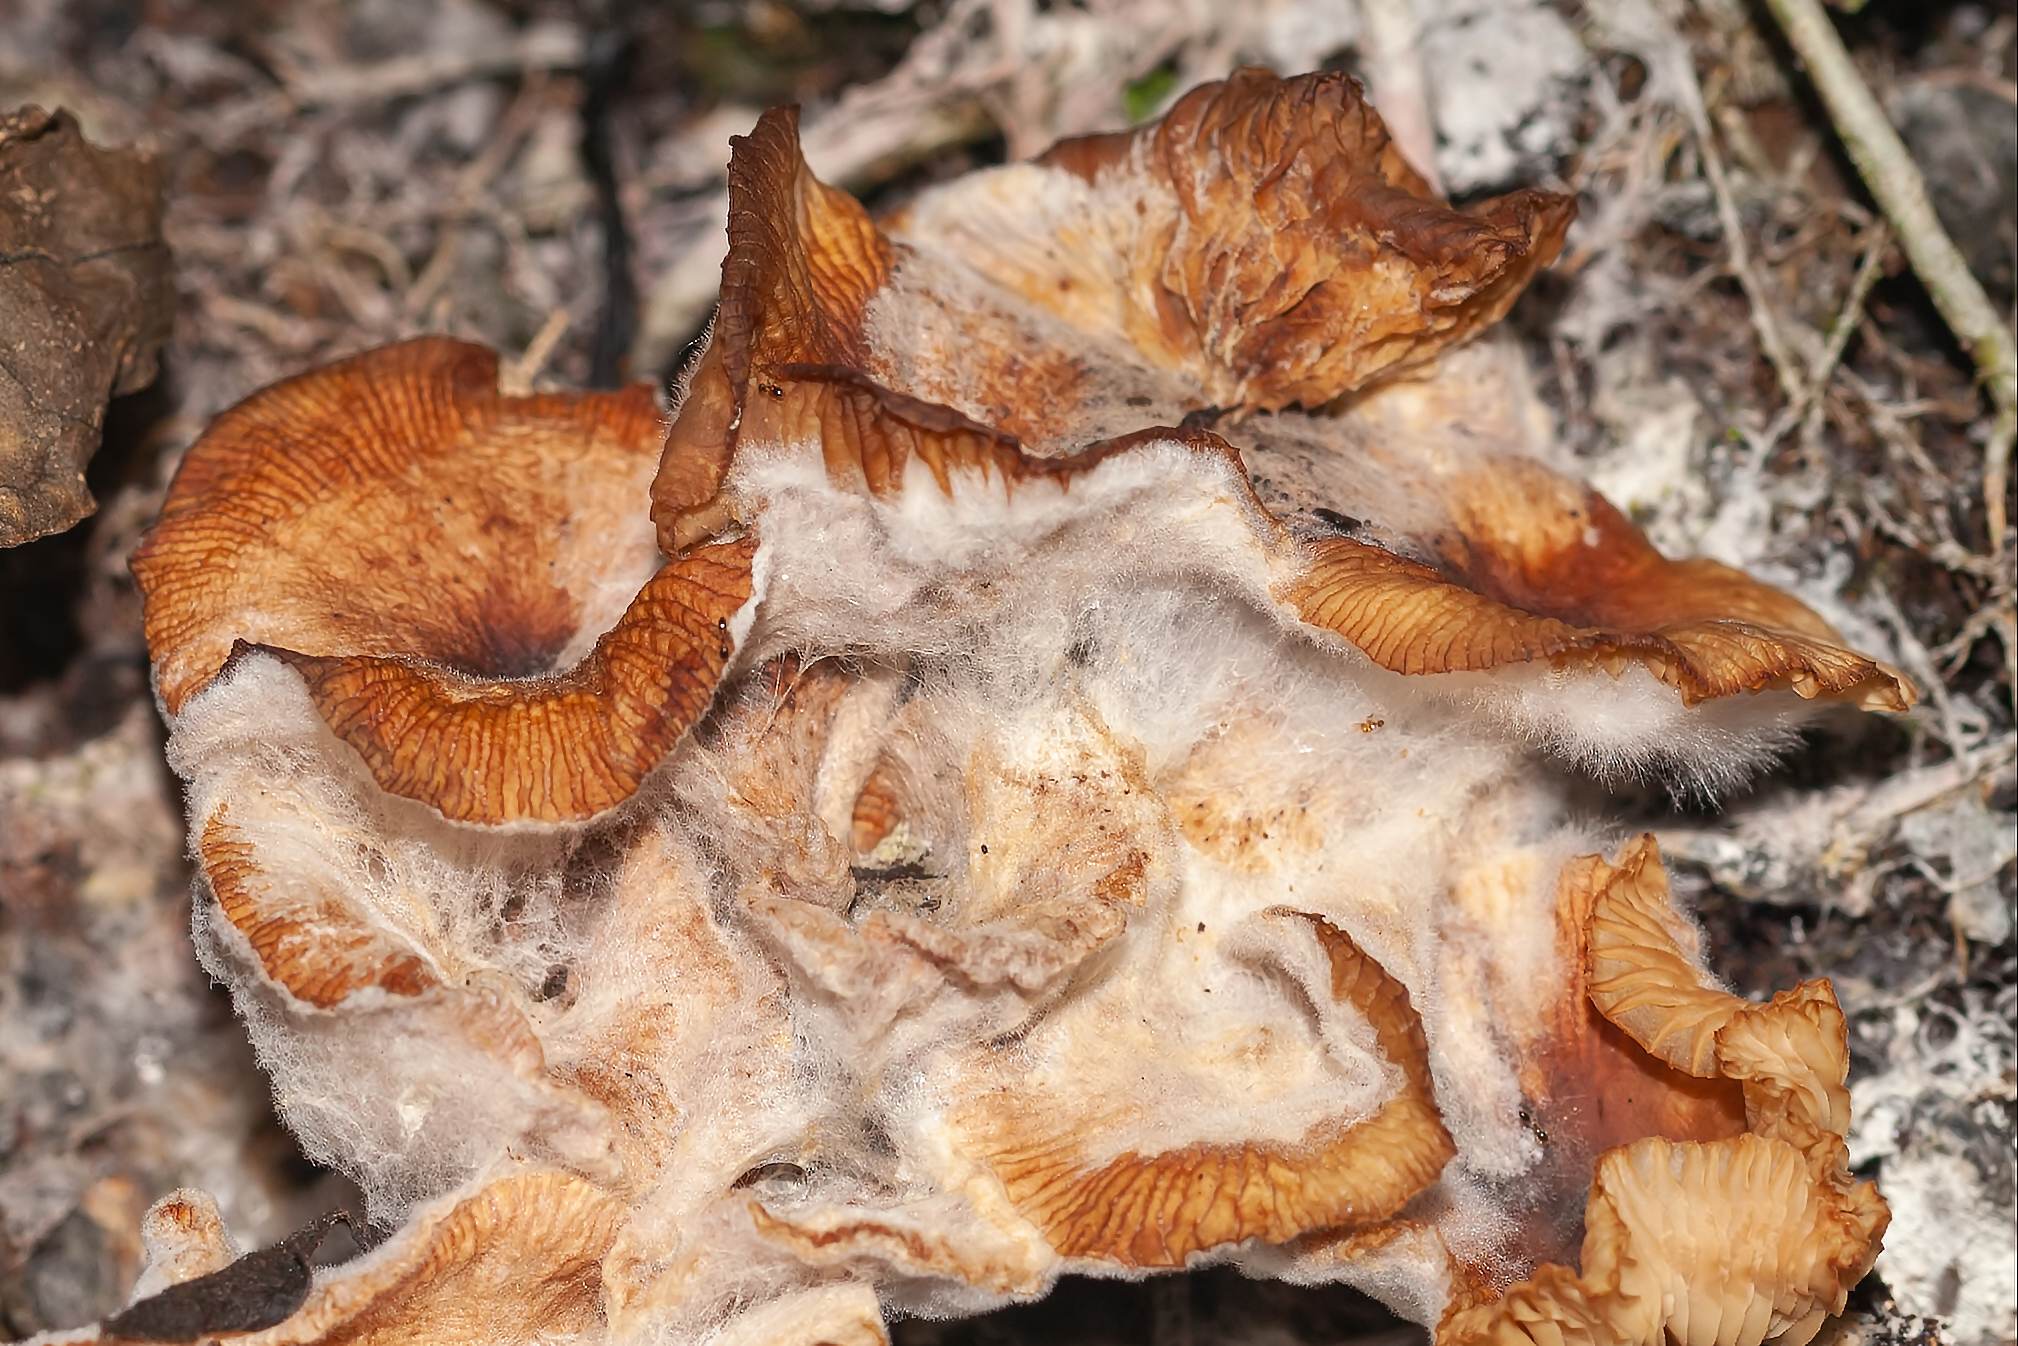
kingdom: Fungi
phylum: Basidiomycota
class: Agaricomycetes
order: Agaricales
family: Physalacriaceae
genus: Desarmillaria
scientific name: Desarmillaria caespitosa
